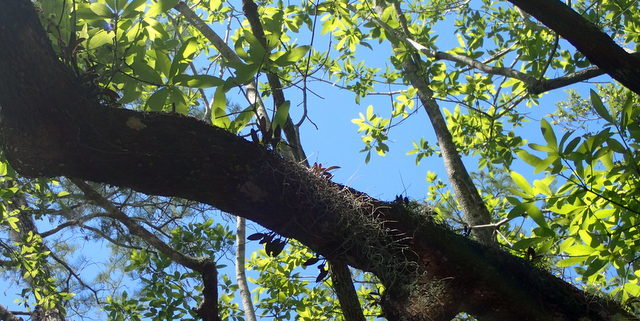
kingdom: Plantae
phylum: Tracheophyta
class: Liliopsida
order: Asparagales
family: Orchidaceae
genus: Epidendrum
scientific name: Epidendrum conopseum
